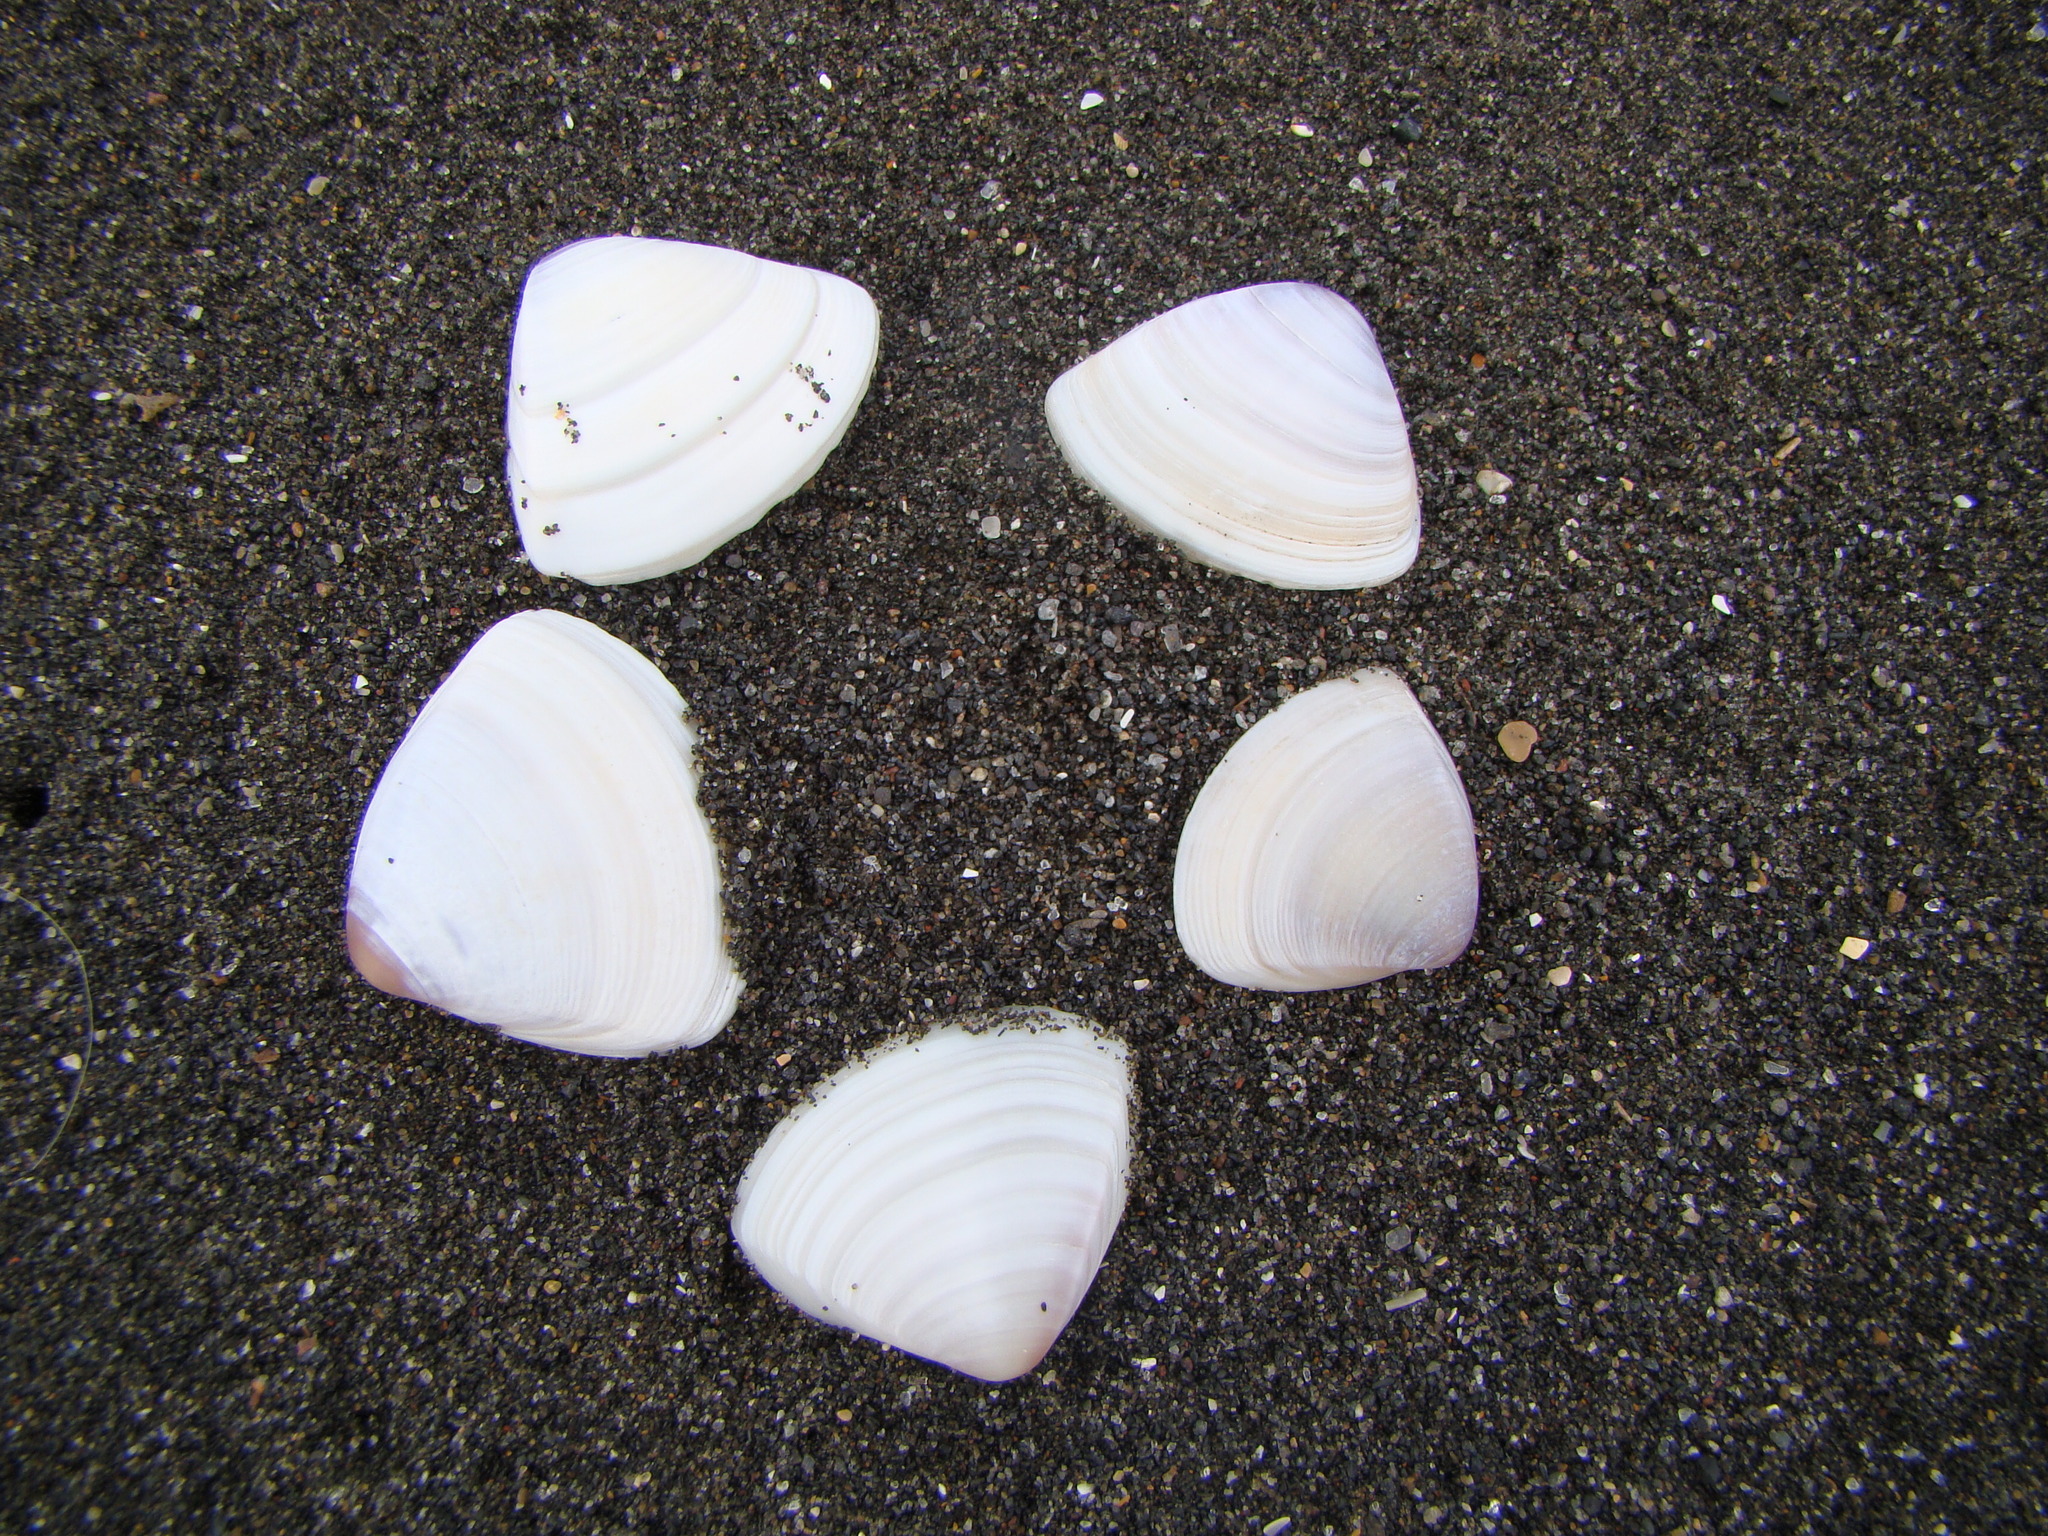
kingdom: Animalia
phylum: Mollusca
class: Bivalvia
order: Venerida
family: Mactridae
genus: Crassula
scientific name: Crassula aequilatera
